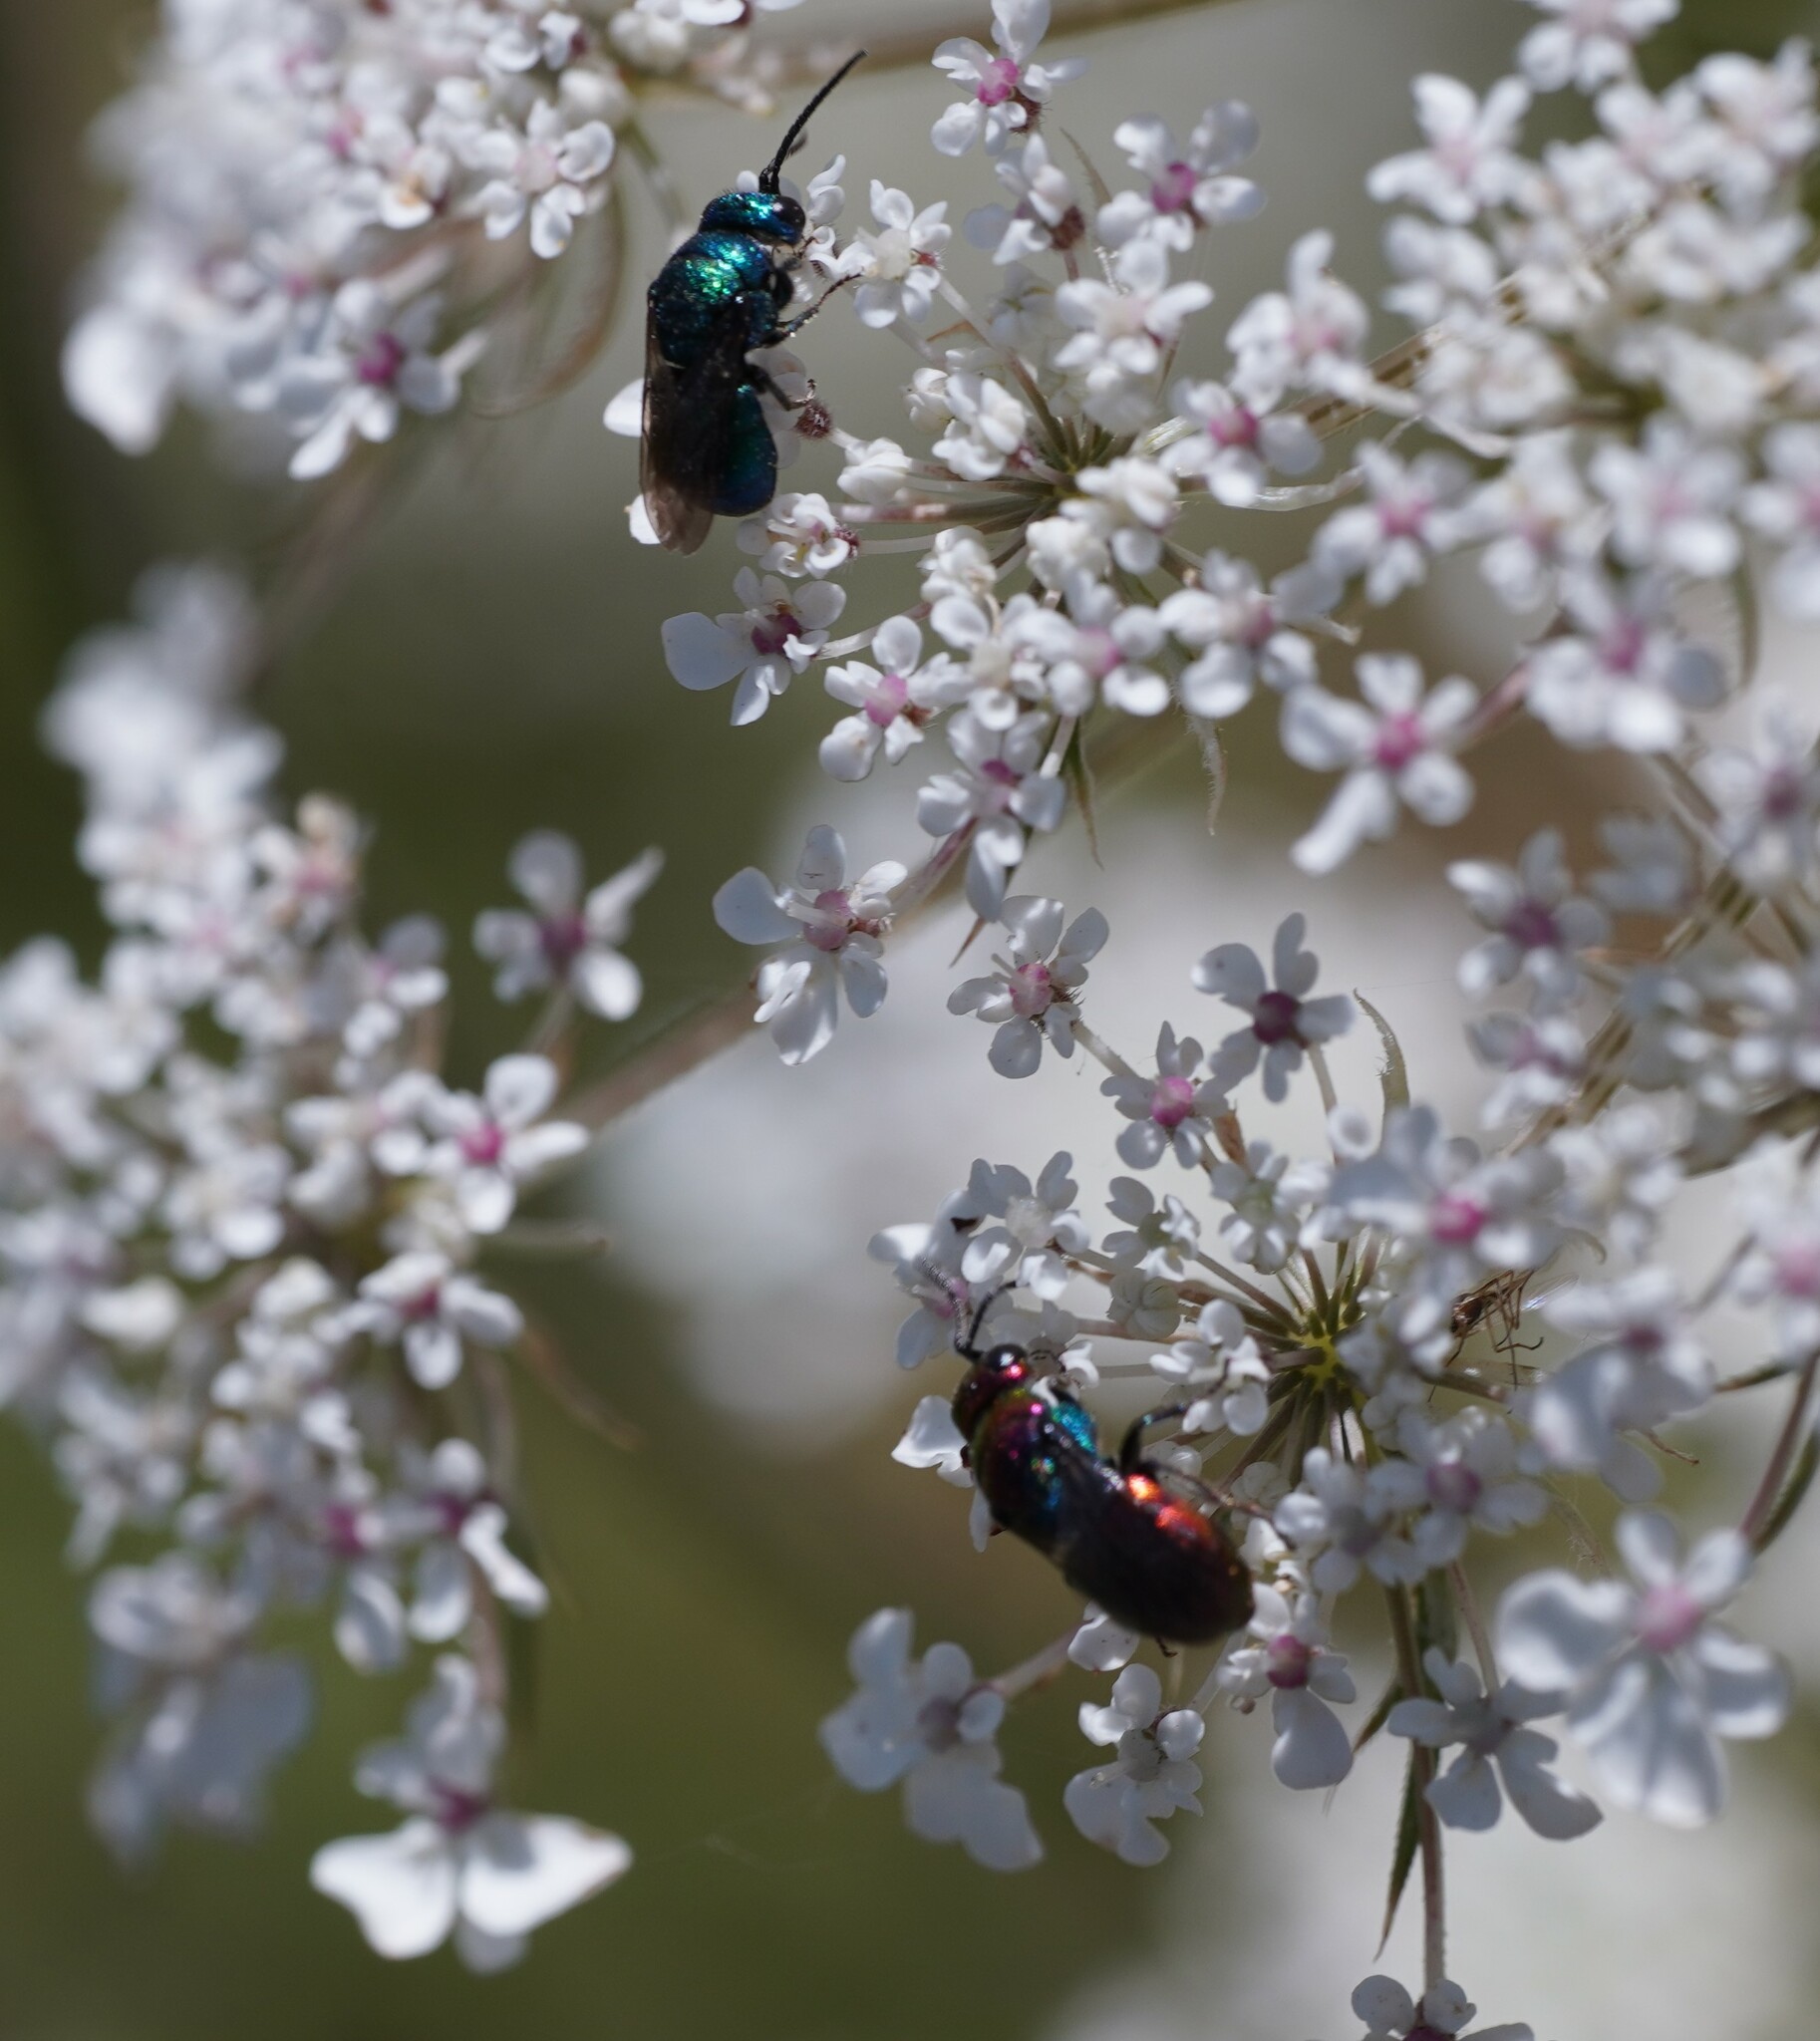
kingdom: Animalia
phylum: Arthropoda
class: Insecta
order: Hymenoptera
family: Chrysididae
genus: Holopyga
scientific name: Holopyga fervida
